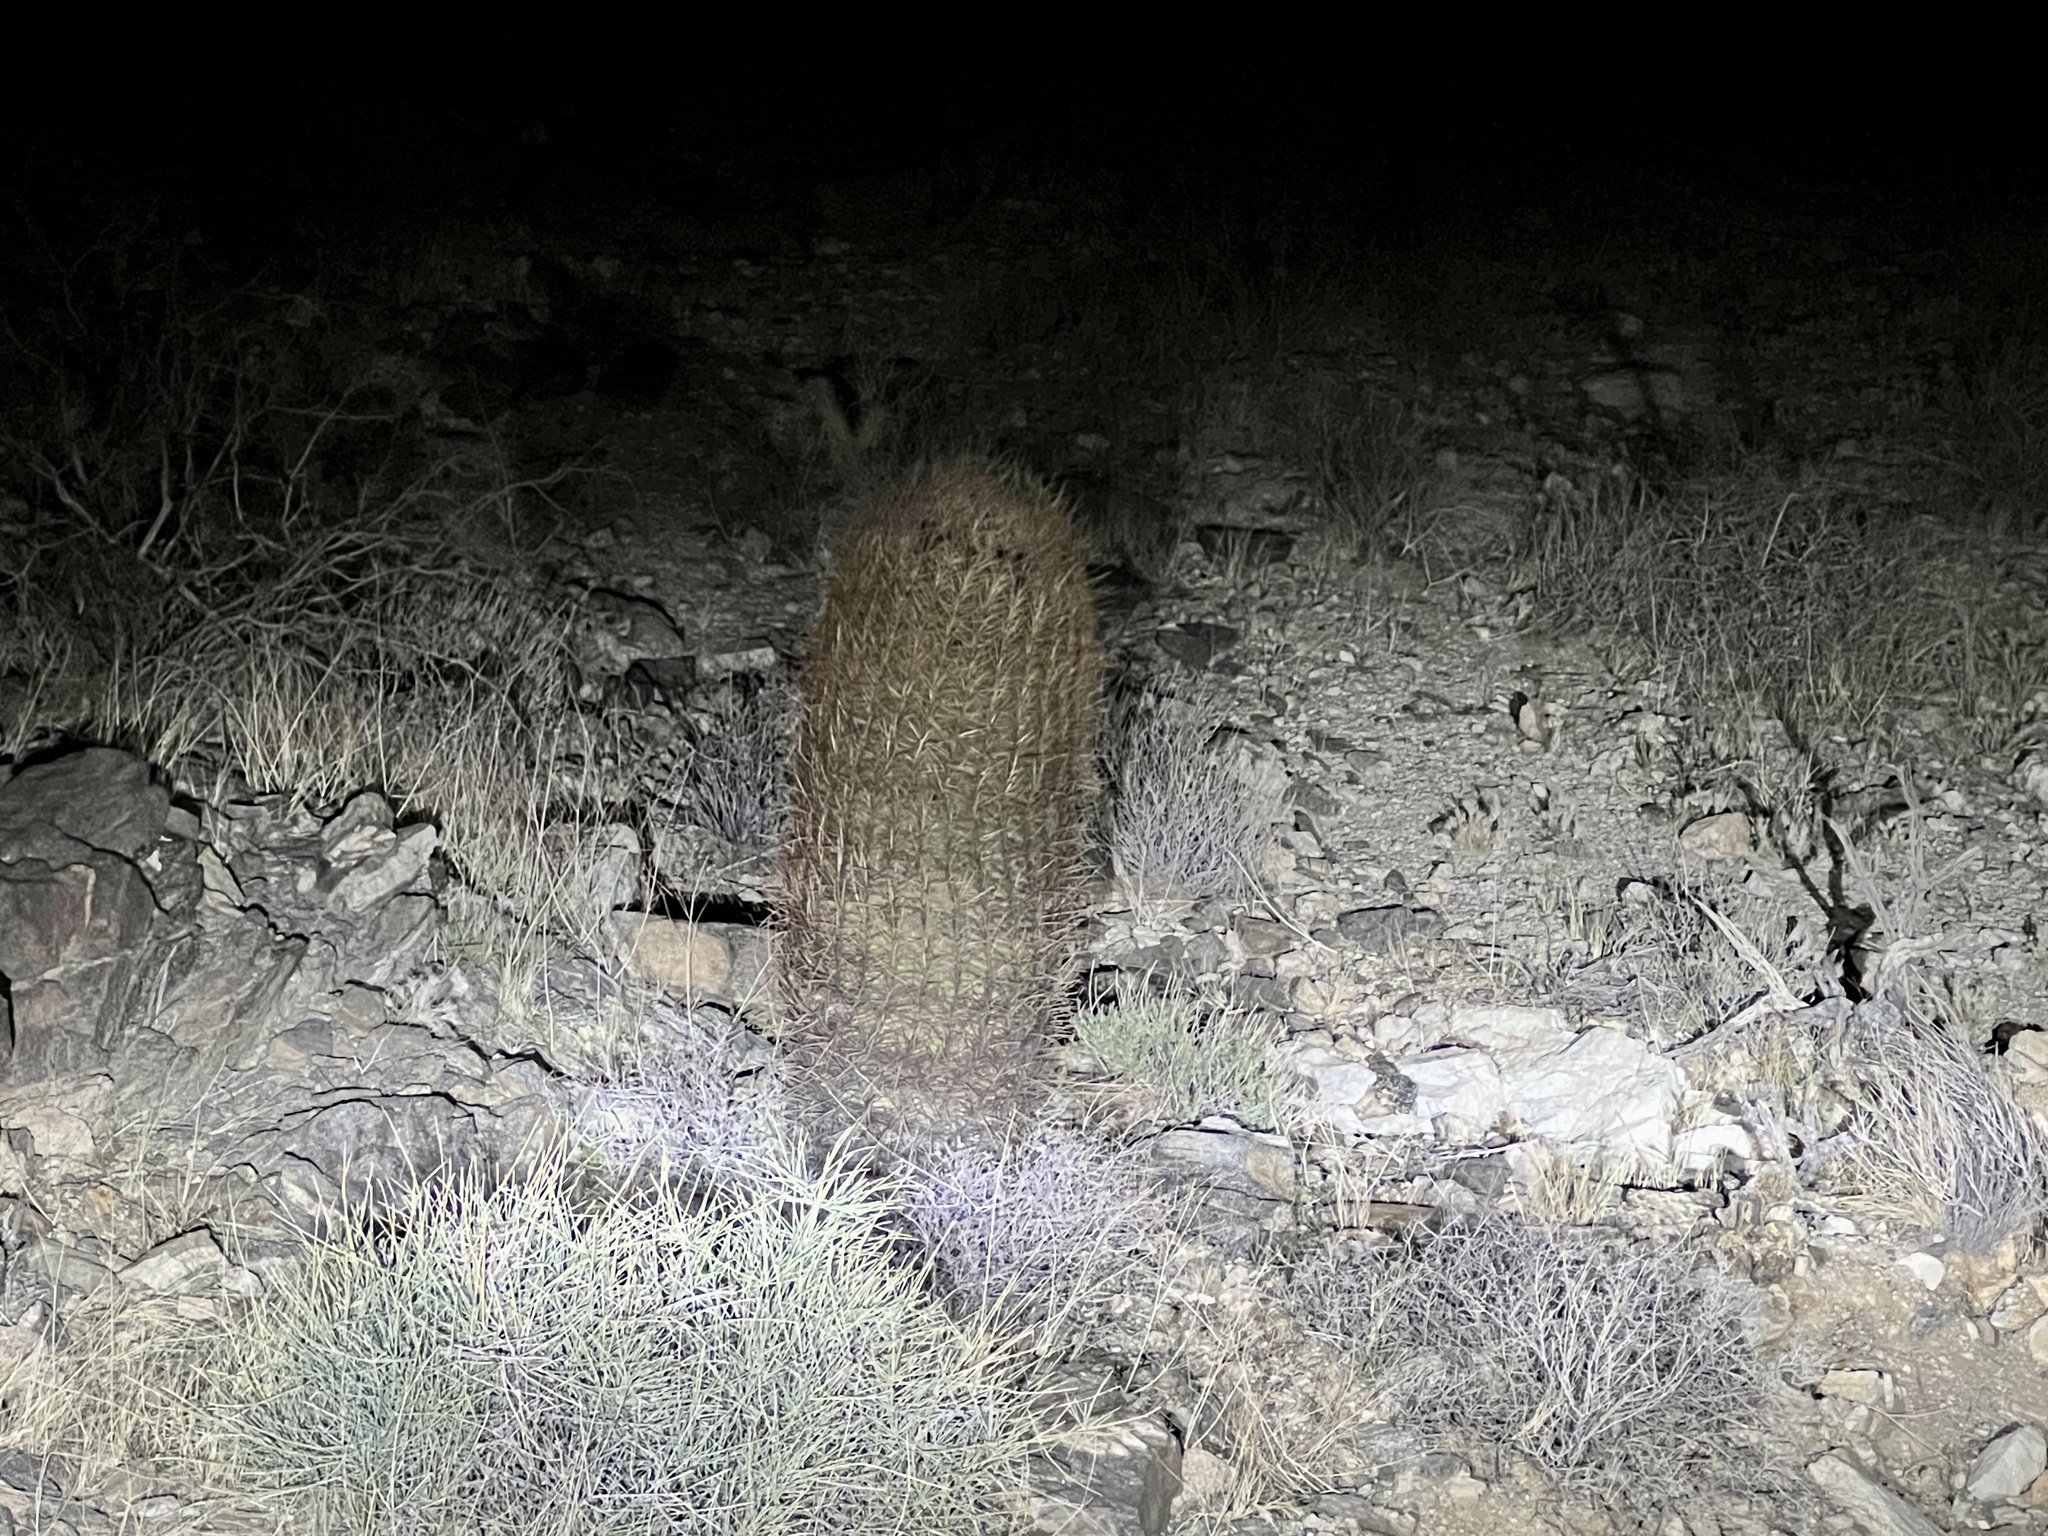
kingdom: Plantae
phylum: Tracheophyta
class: Magnoliopsida
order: Caryophyllales
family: Cactaceae
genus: Ferocactus
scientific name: Ferocactus cylindraceus
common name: California barrel cactus
